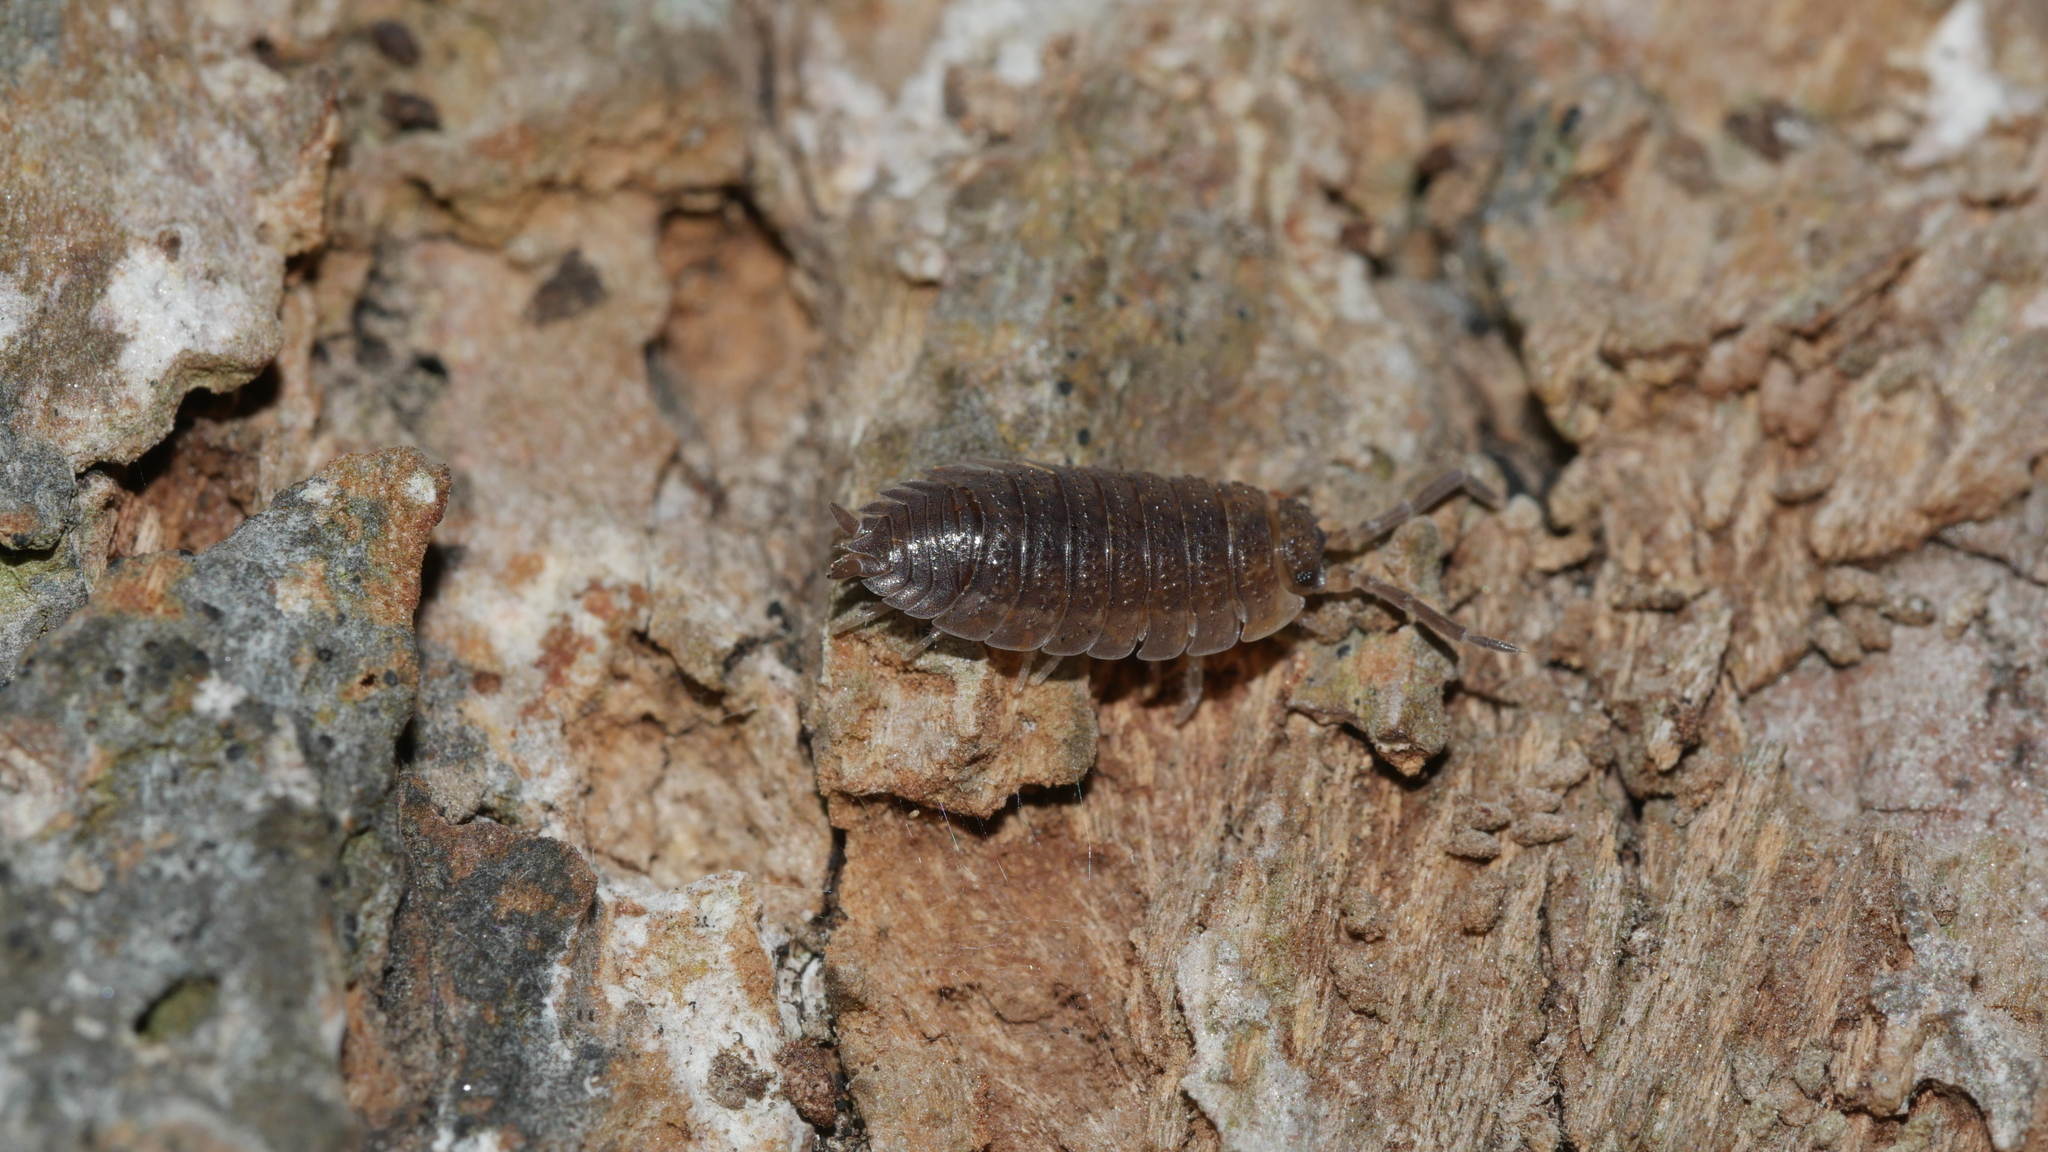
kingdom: Animalia
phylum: Arthropoda
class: Malacostraca
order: Isopoda
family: Porcellionidae
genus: Porcellio
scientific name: Porcellio scaber
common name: Common rough woodlouse
